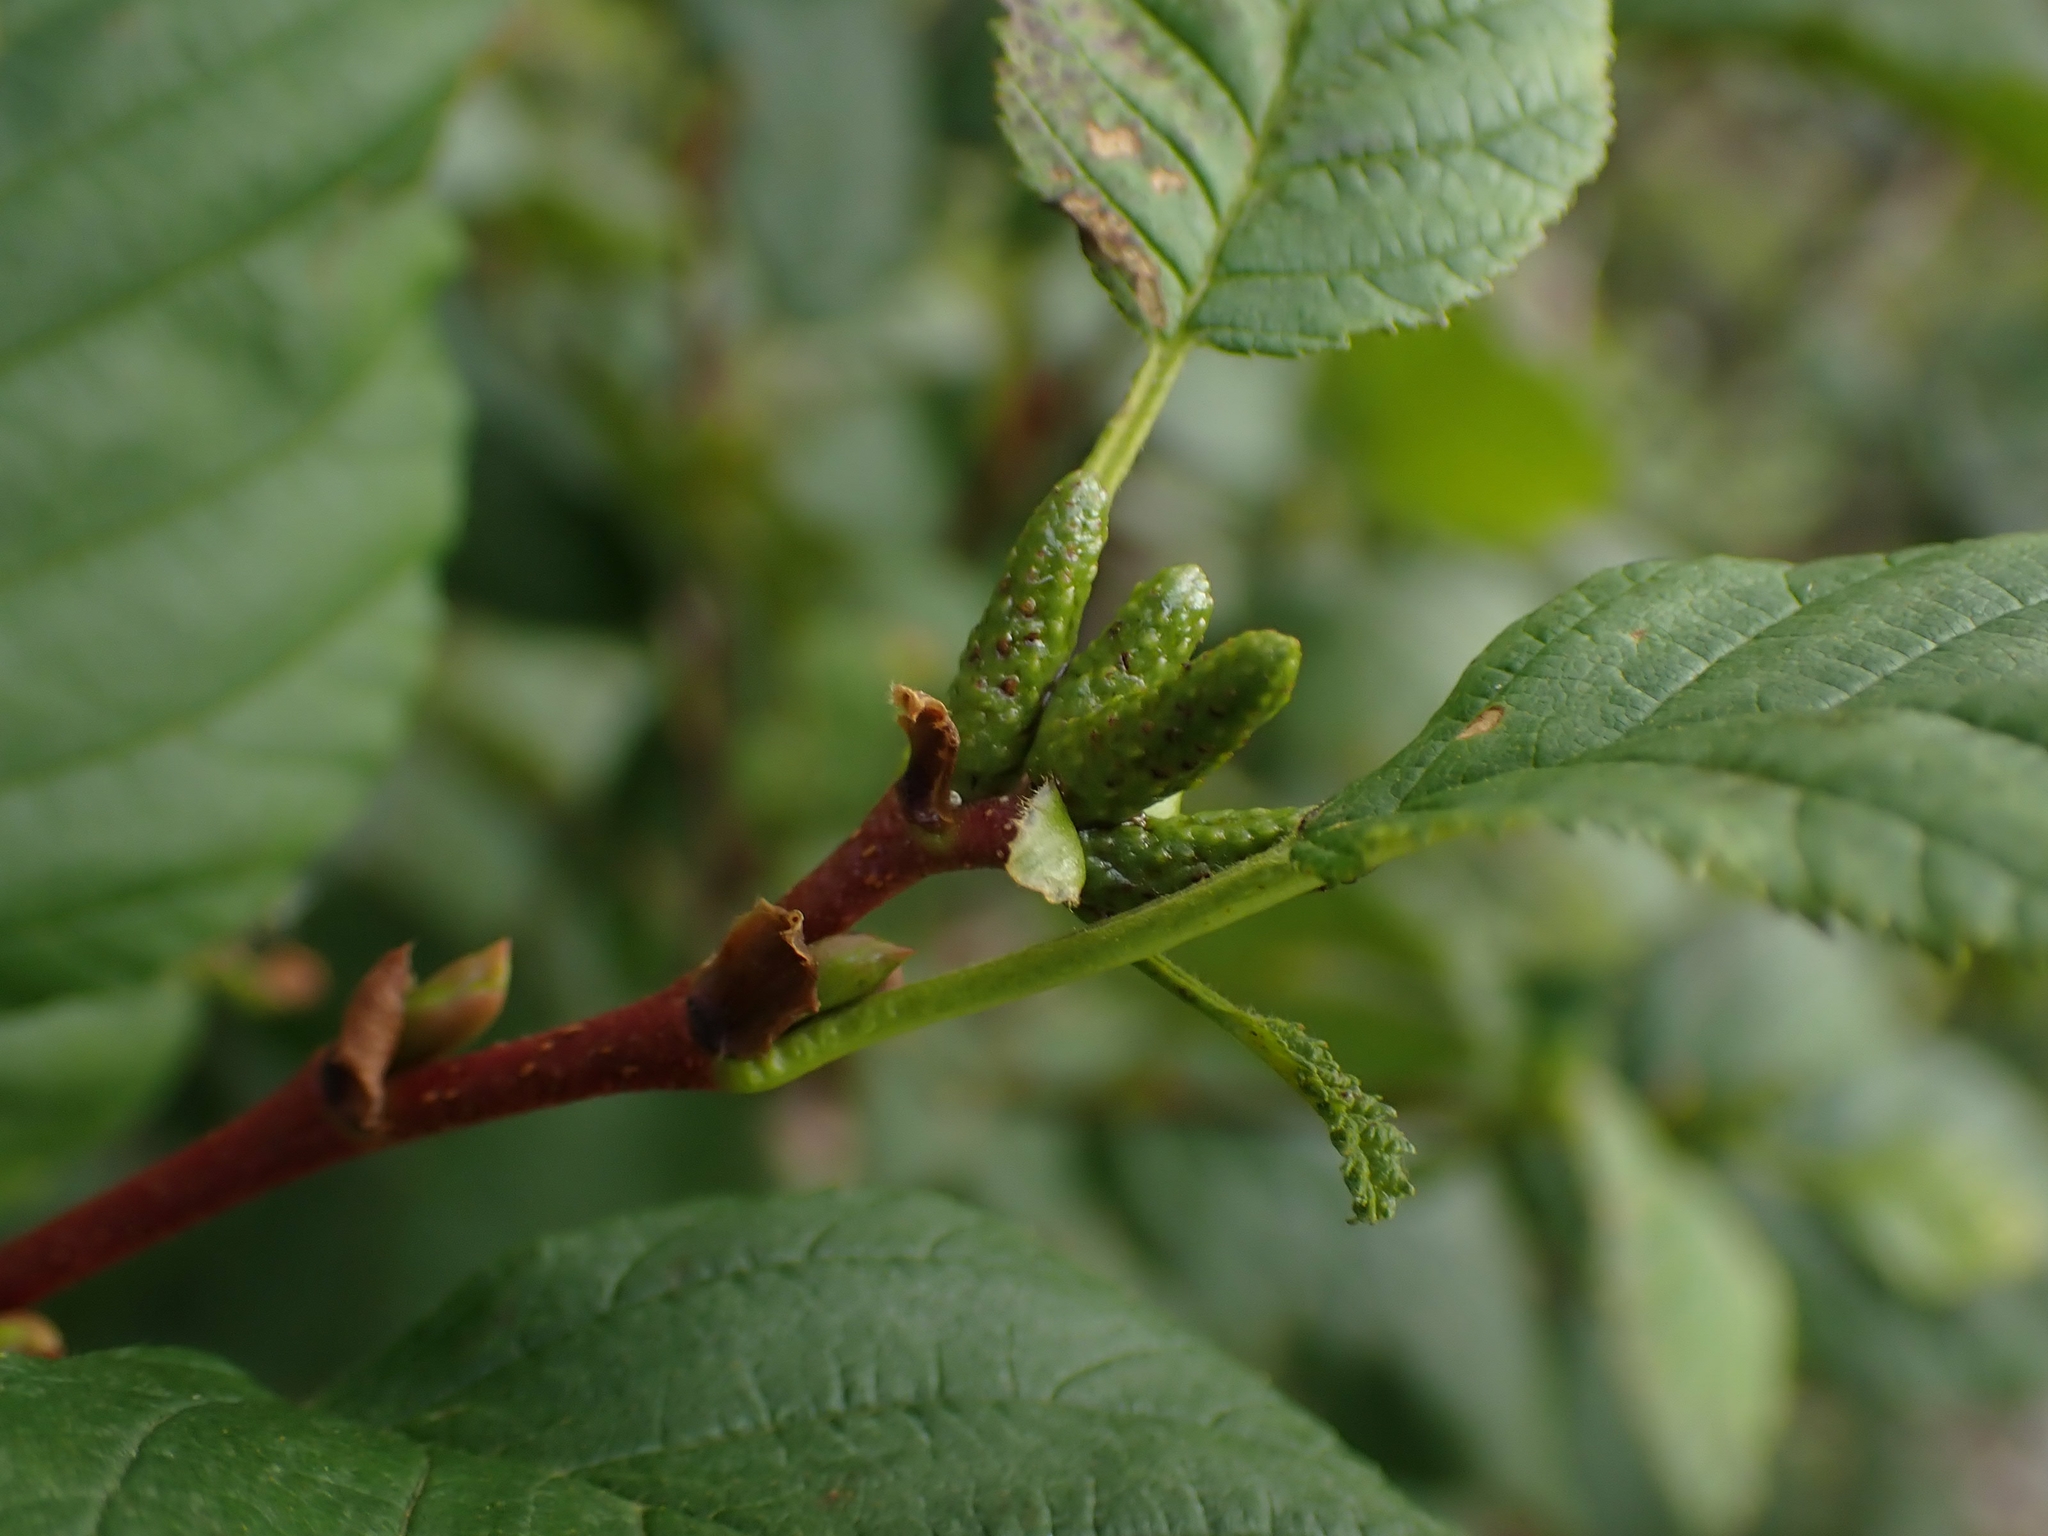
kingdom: Plantae
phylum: Tracheophyta
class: Magnoliopsida
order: Fagales
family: Betulaceae
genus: Alnus
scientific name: Alnus alnobetula
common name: Green alder
